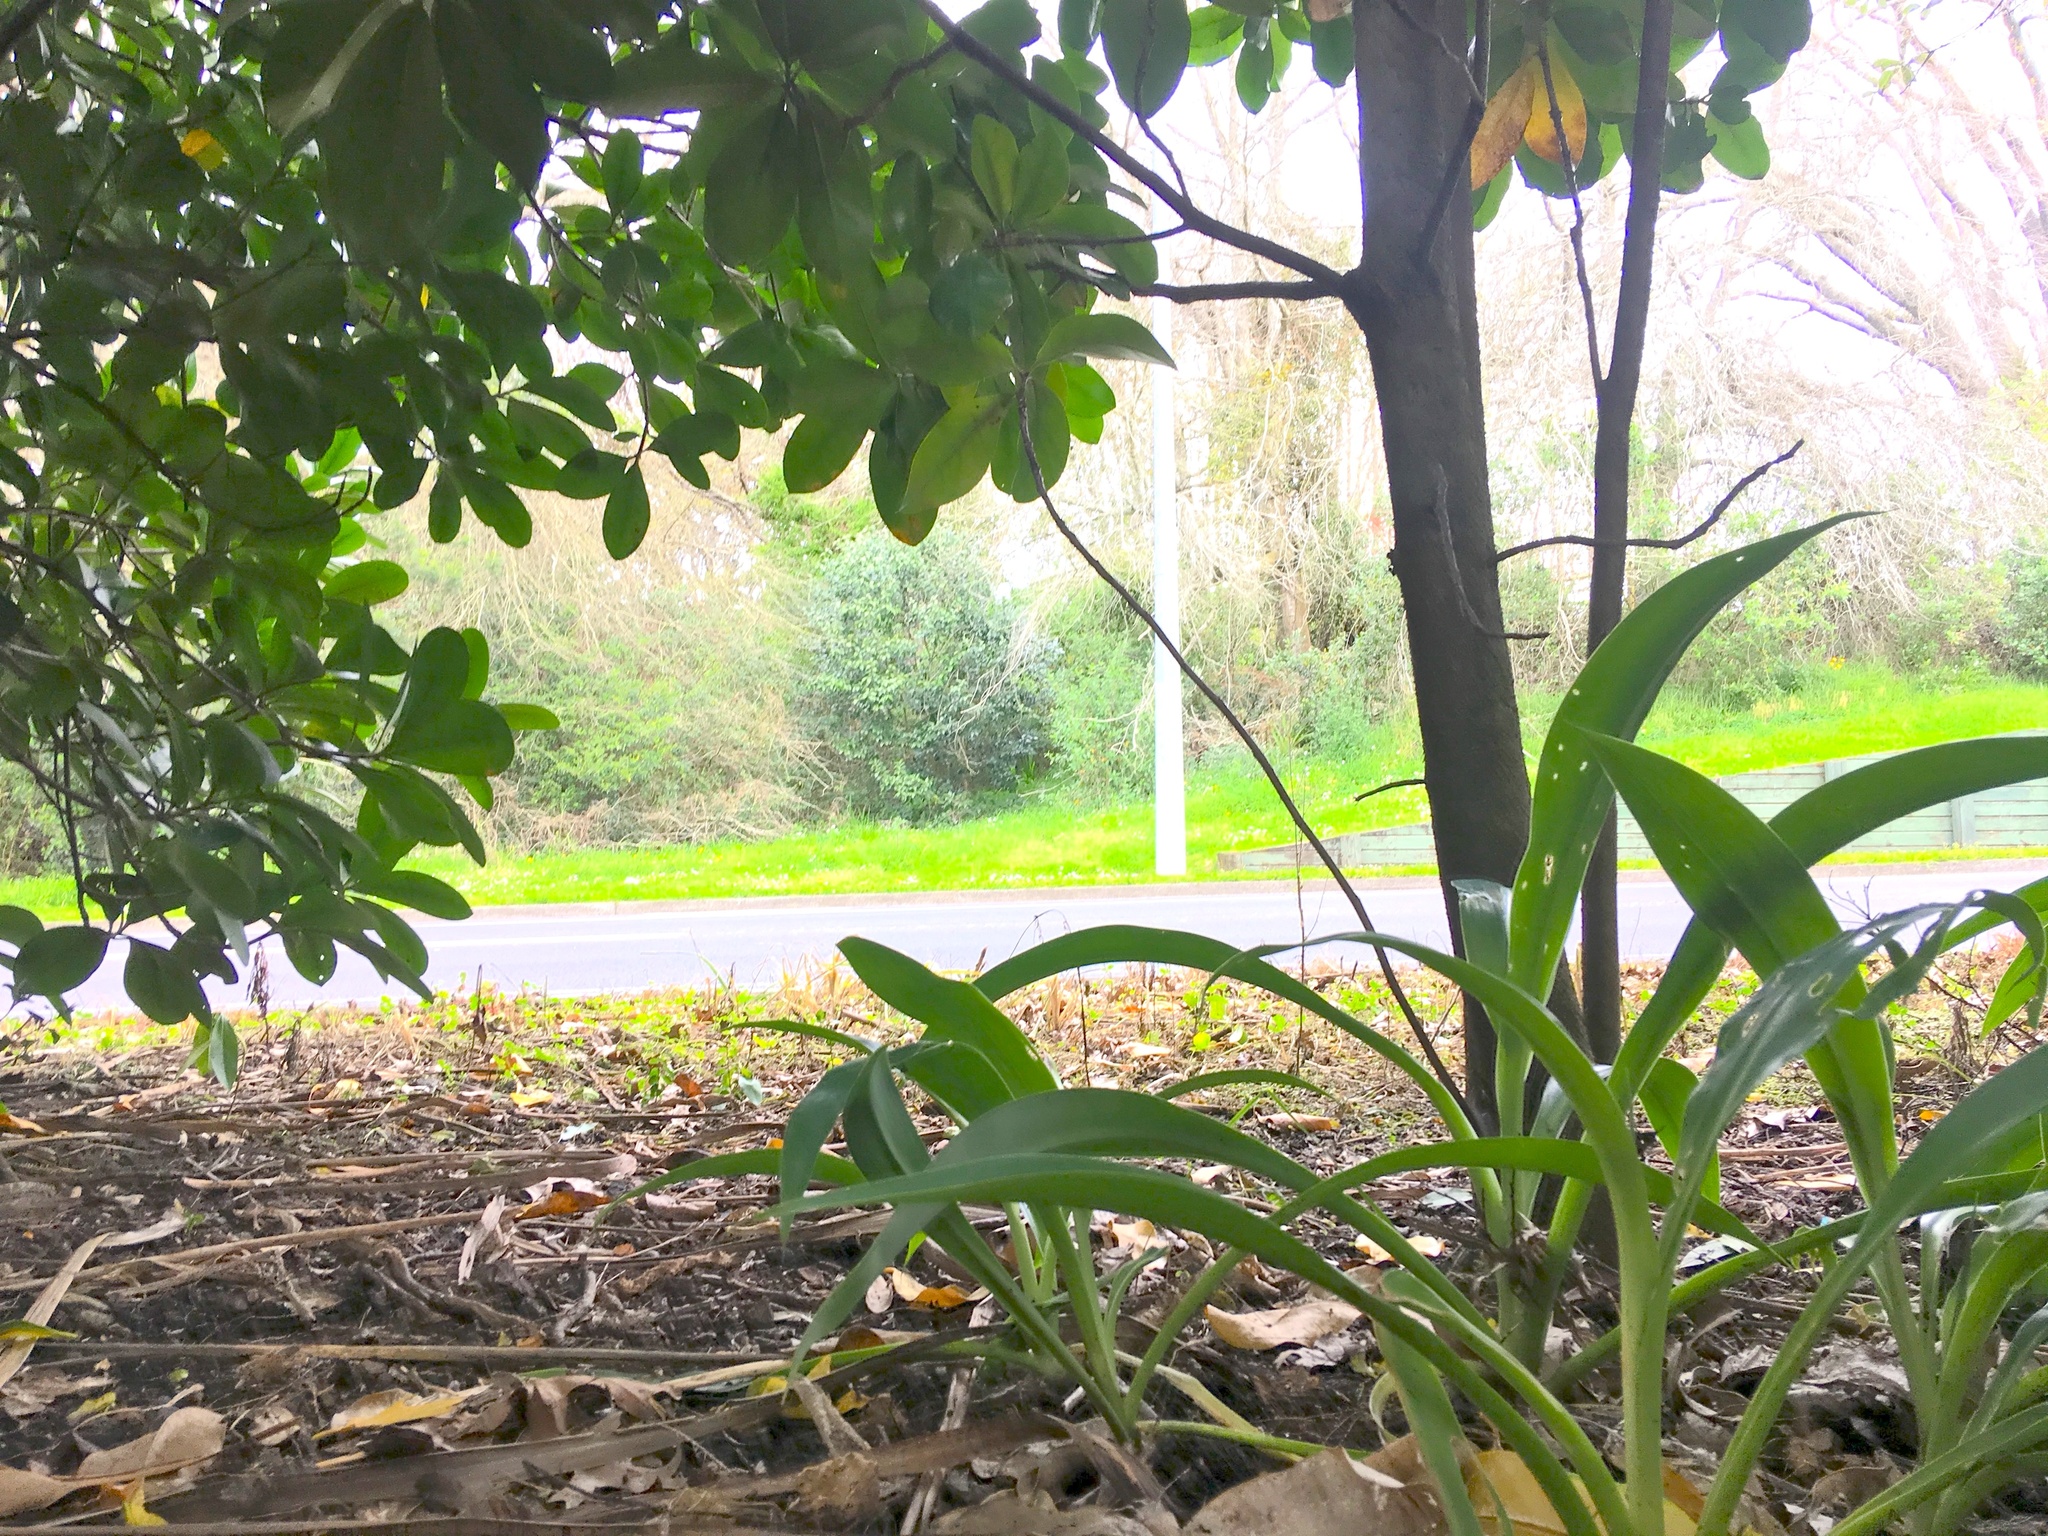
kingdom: Plantae
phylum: Tracheophyta
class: Magnoliopsida
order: Cucurbitales
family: Corynocarpaceae
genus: Corynocarpus
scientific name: Corynocarpus laevigatus
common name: New zealand laurel
